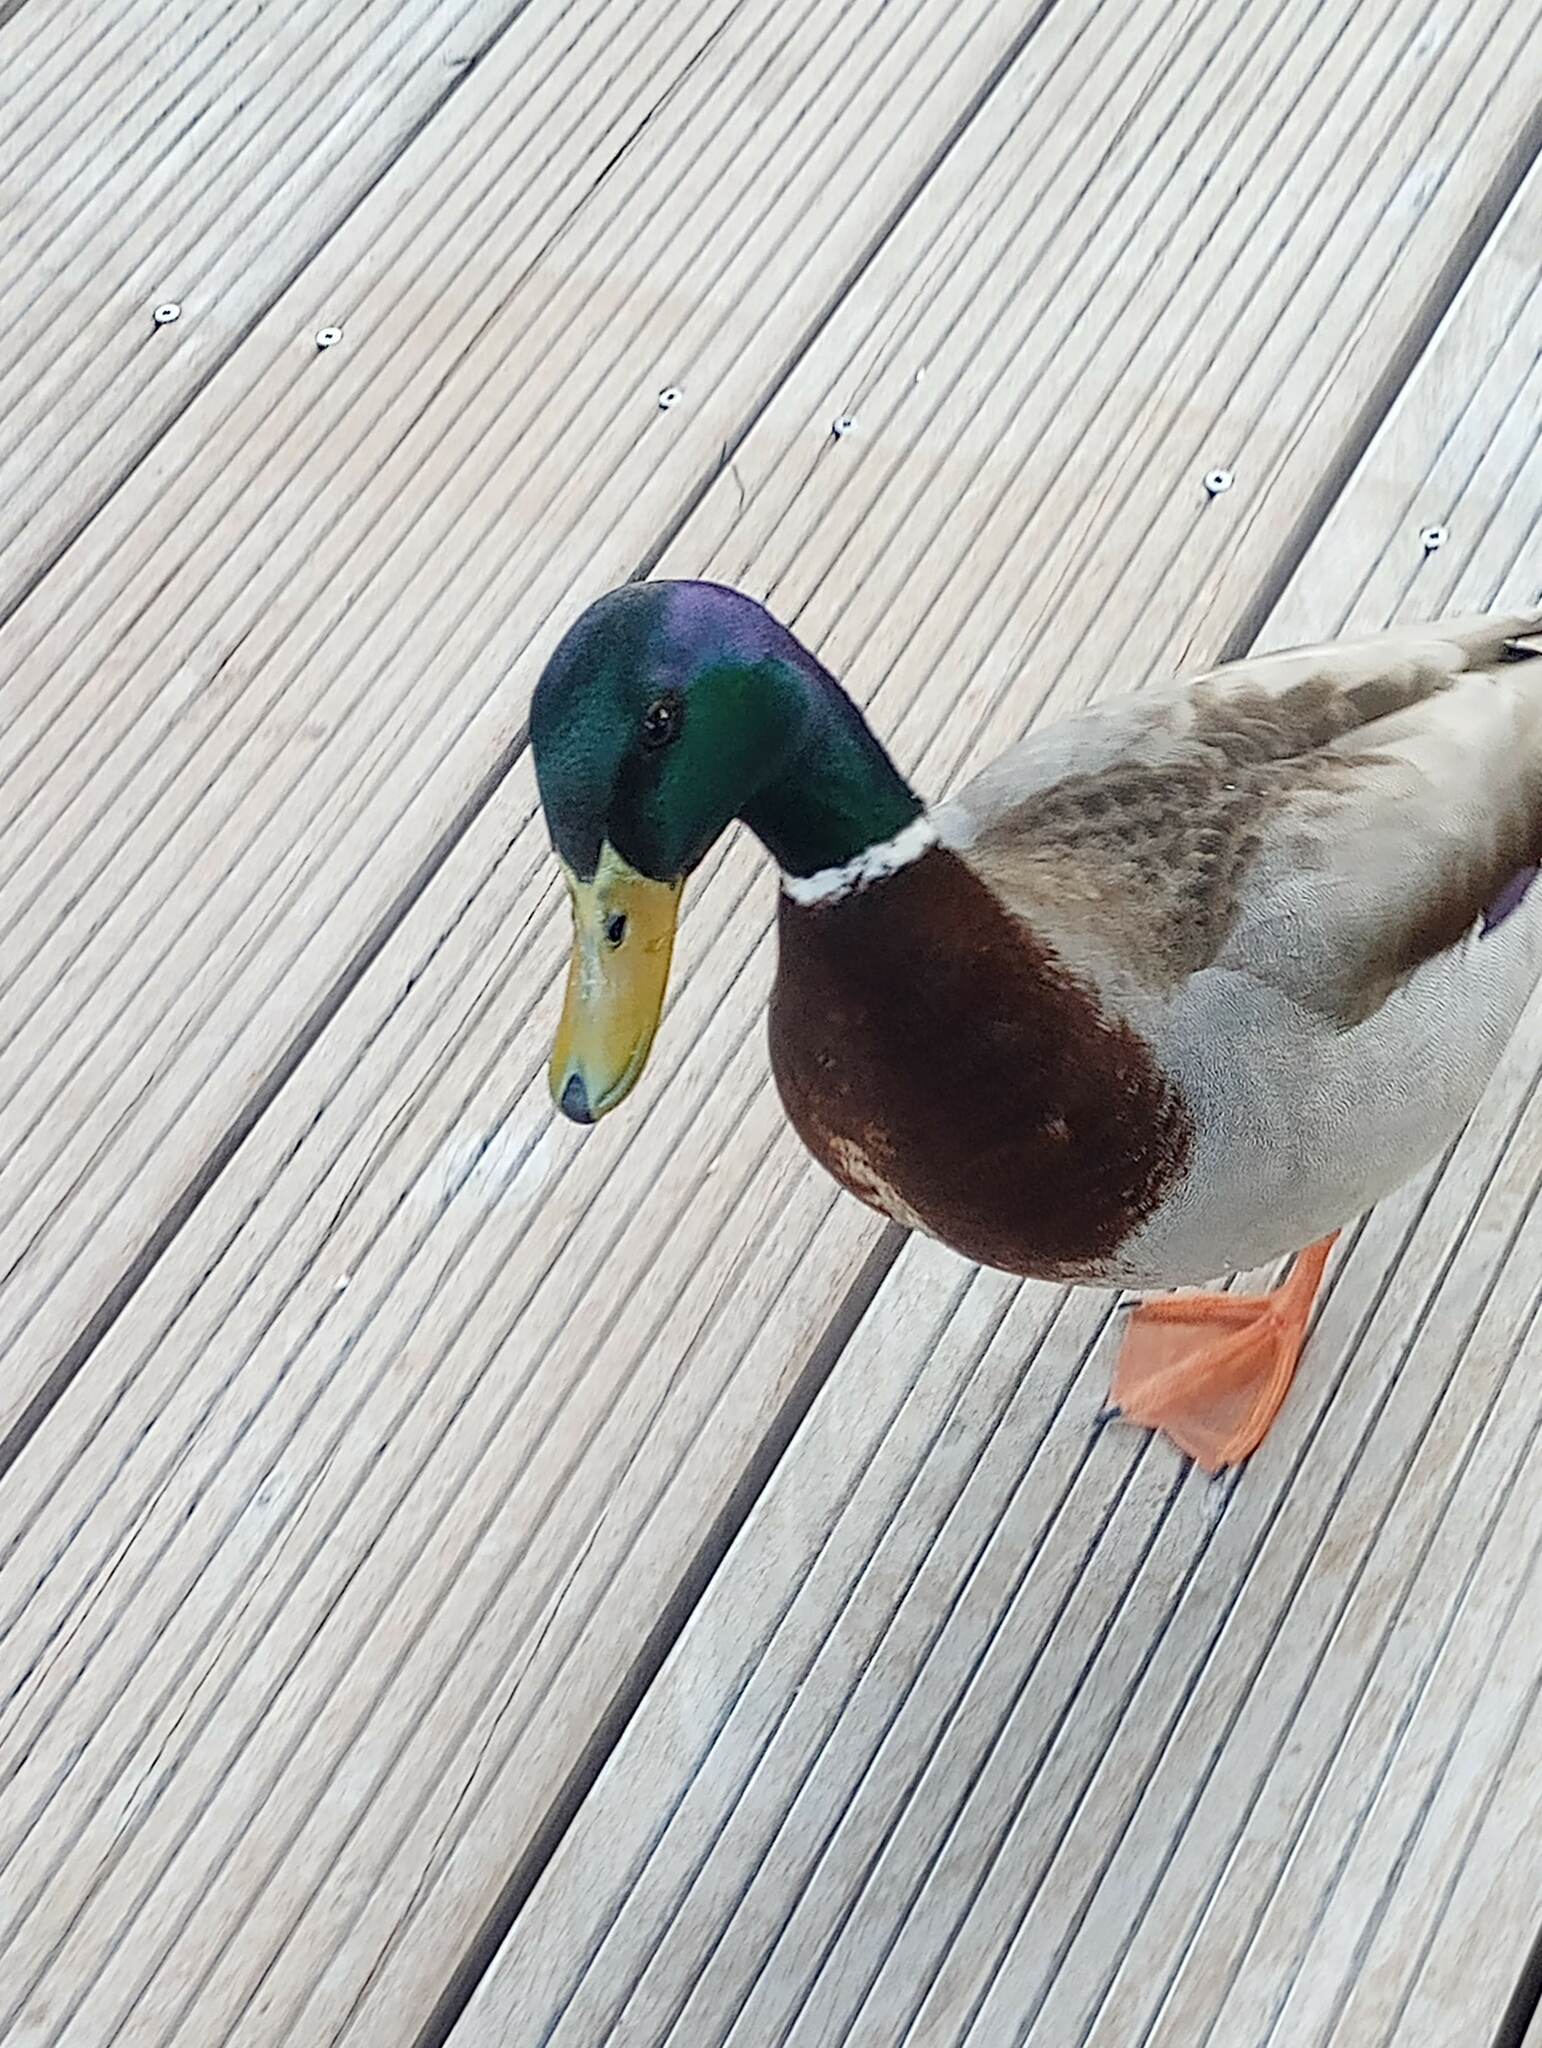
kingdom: Animalia
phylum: Chordata
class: Aves
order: Anseriformes
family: Anatidae
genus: Anas
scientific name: Anas platyrhynchos
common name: Mallard
